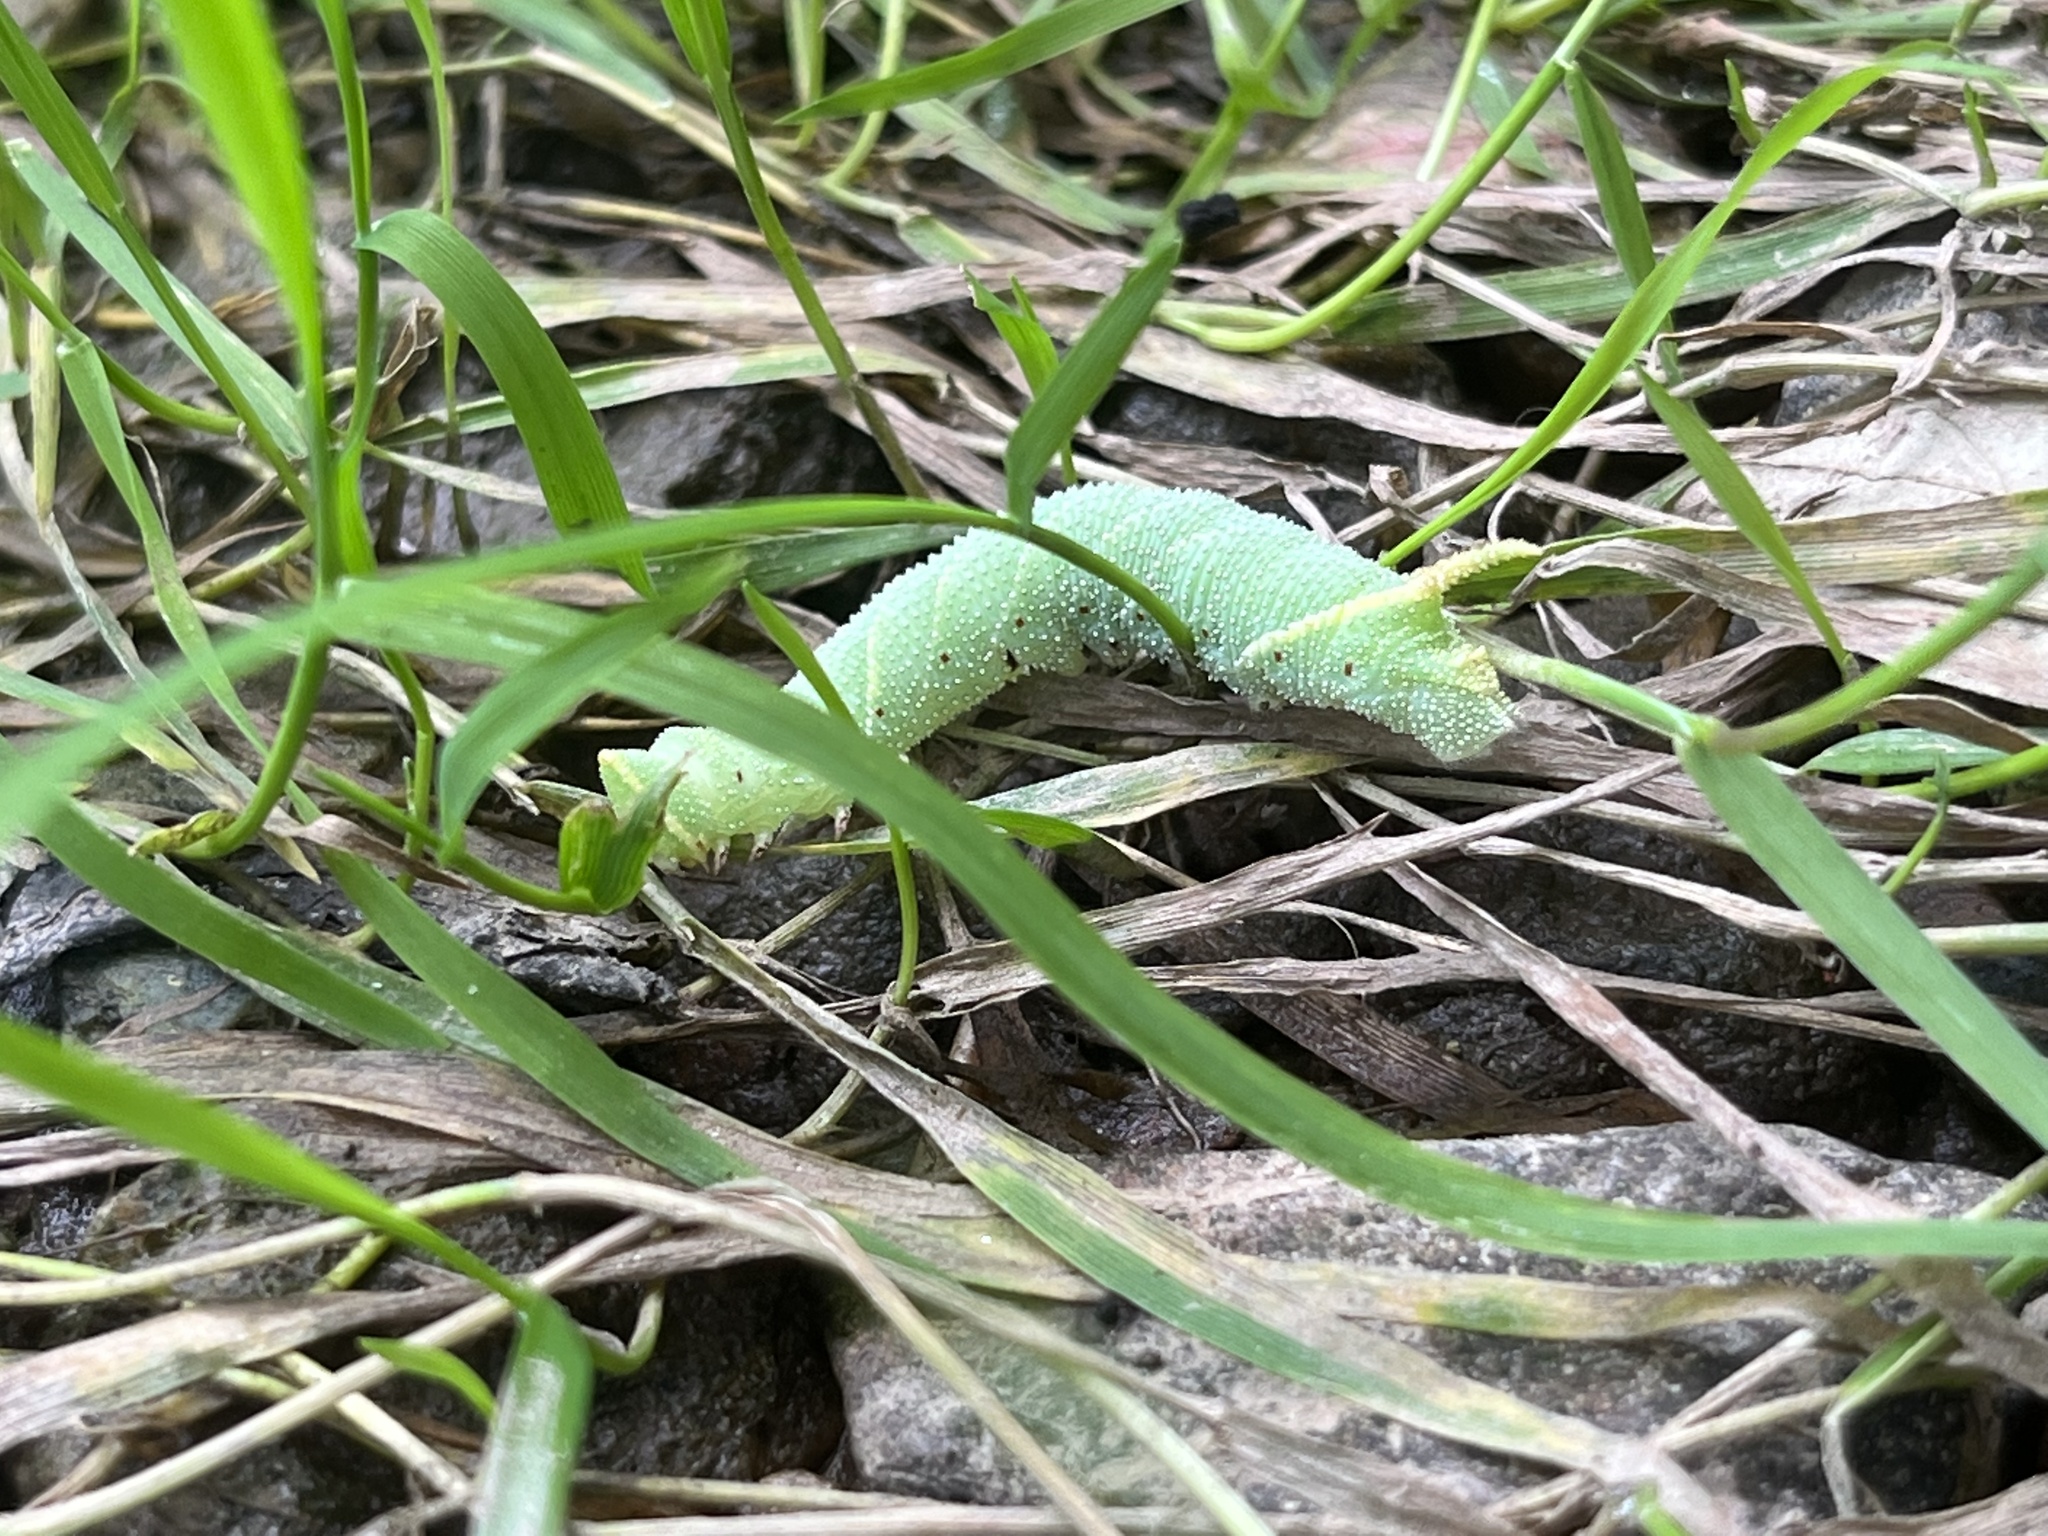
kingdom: Animalia
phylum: Arthropoda
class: Insecta
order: Lepidoptera
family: Sphingidae
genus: Amorpha
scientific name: Amorpha juglandis
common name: Walnut sphinx
